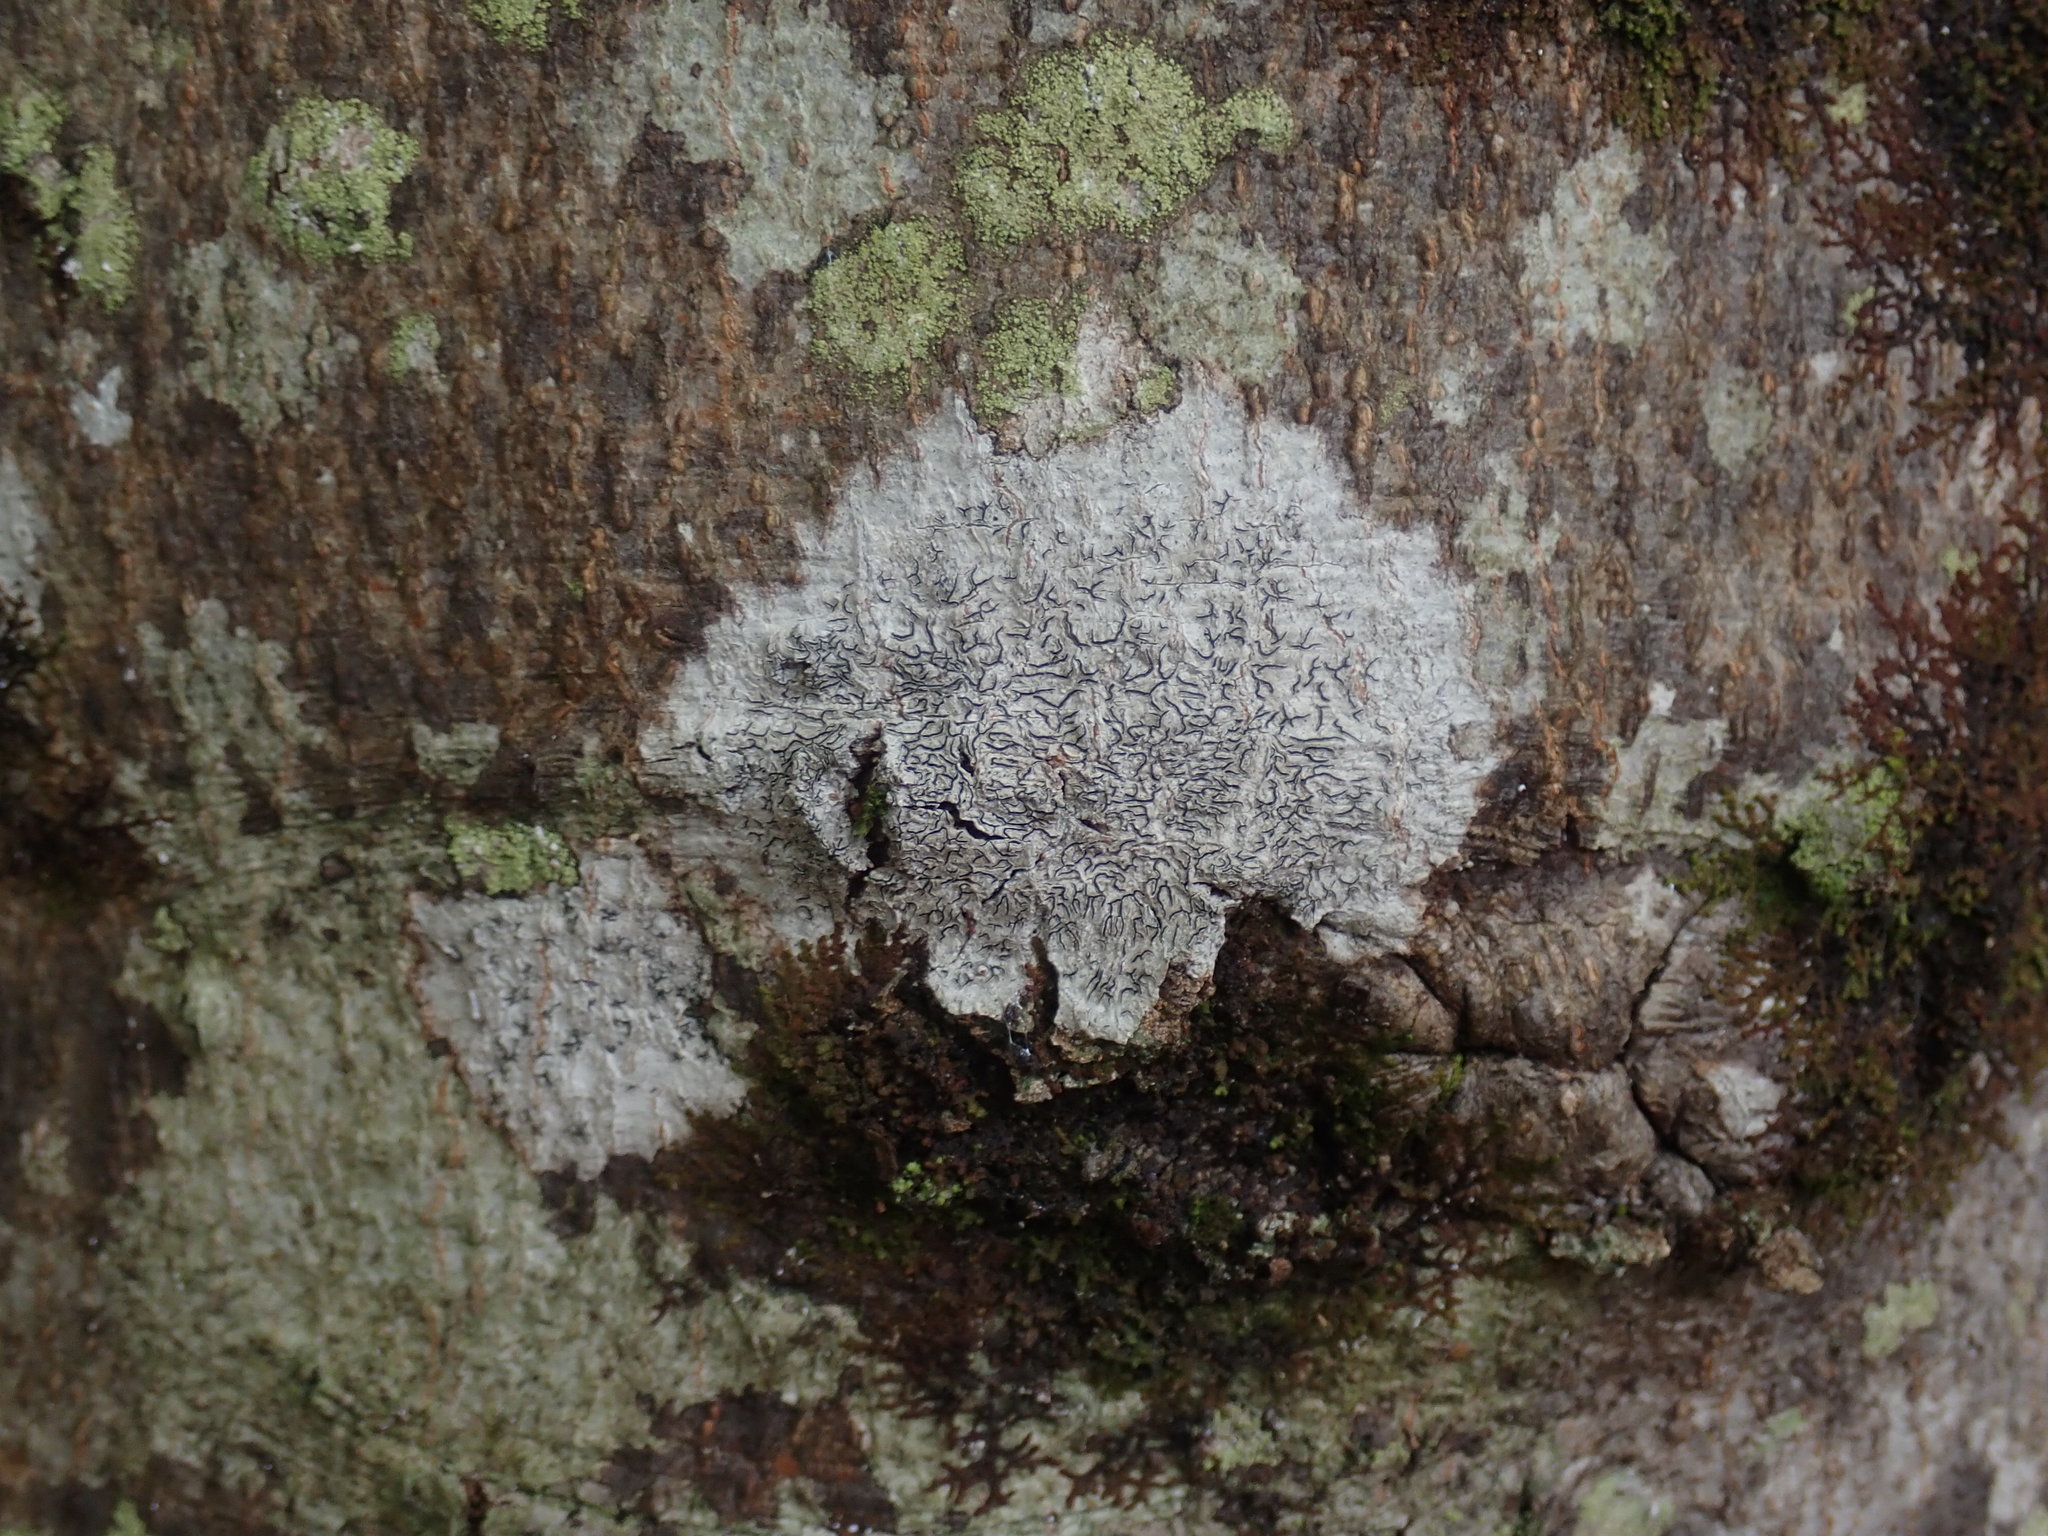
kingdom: Fungi
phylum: Ascomycota
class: Lecanoromycetes
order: Ostropales
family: Graphidaceae
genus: Graphis
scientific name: Graphis scripta
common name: Script lichen
